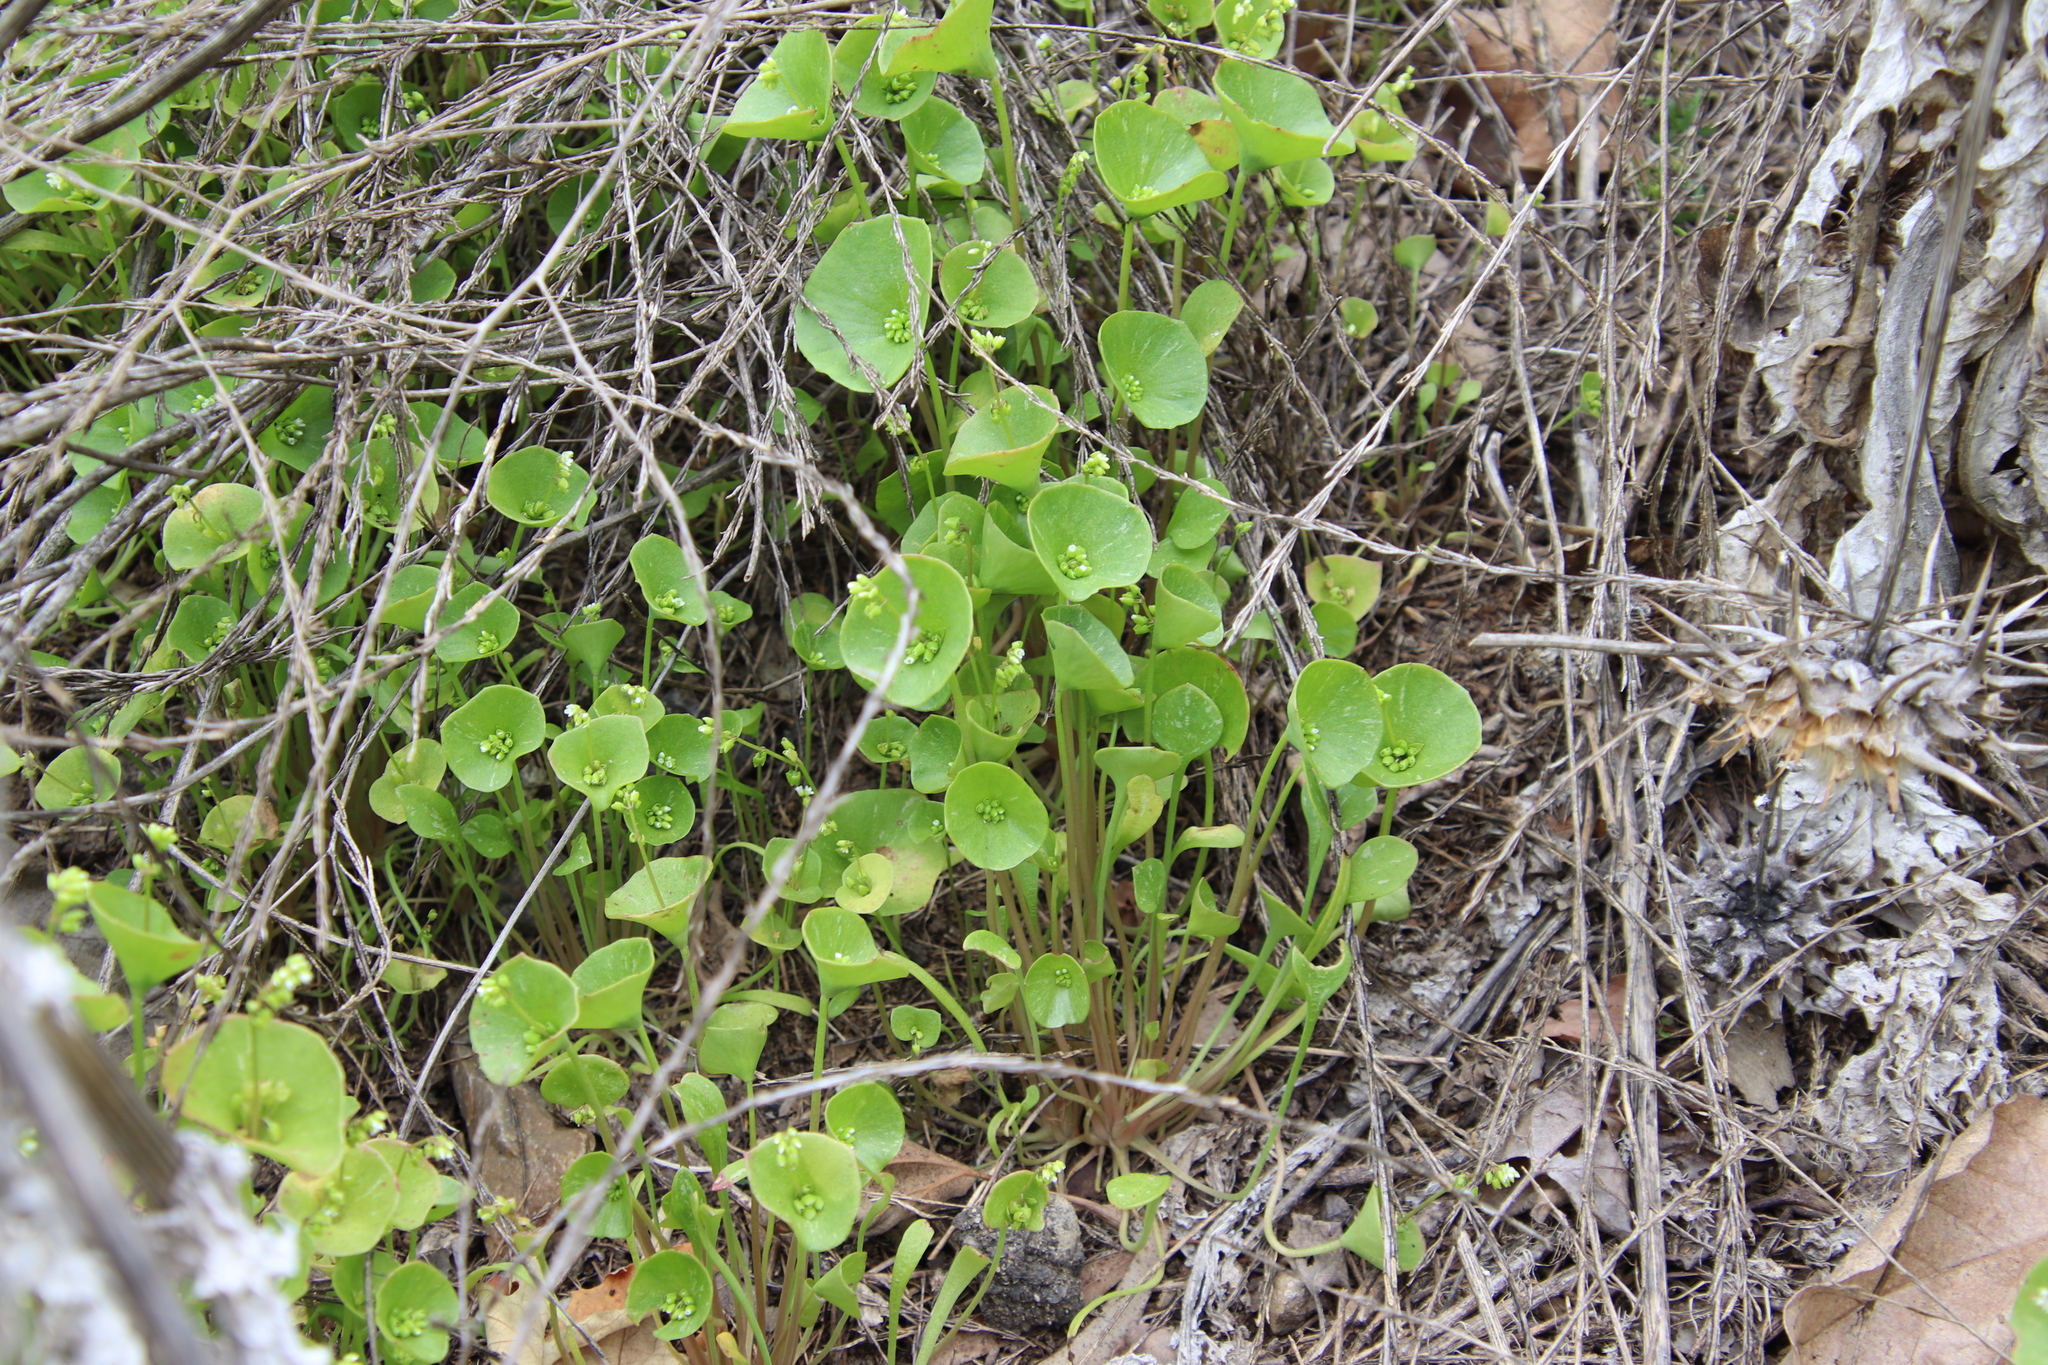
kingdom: Plantae
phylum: Tracheophyta
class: Magnoliopsida
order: Caryophyllales
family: Montiaceae
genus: Claytonia
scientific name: Claytonia perfoliata
